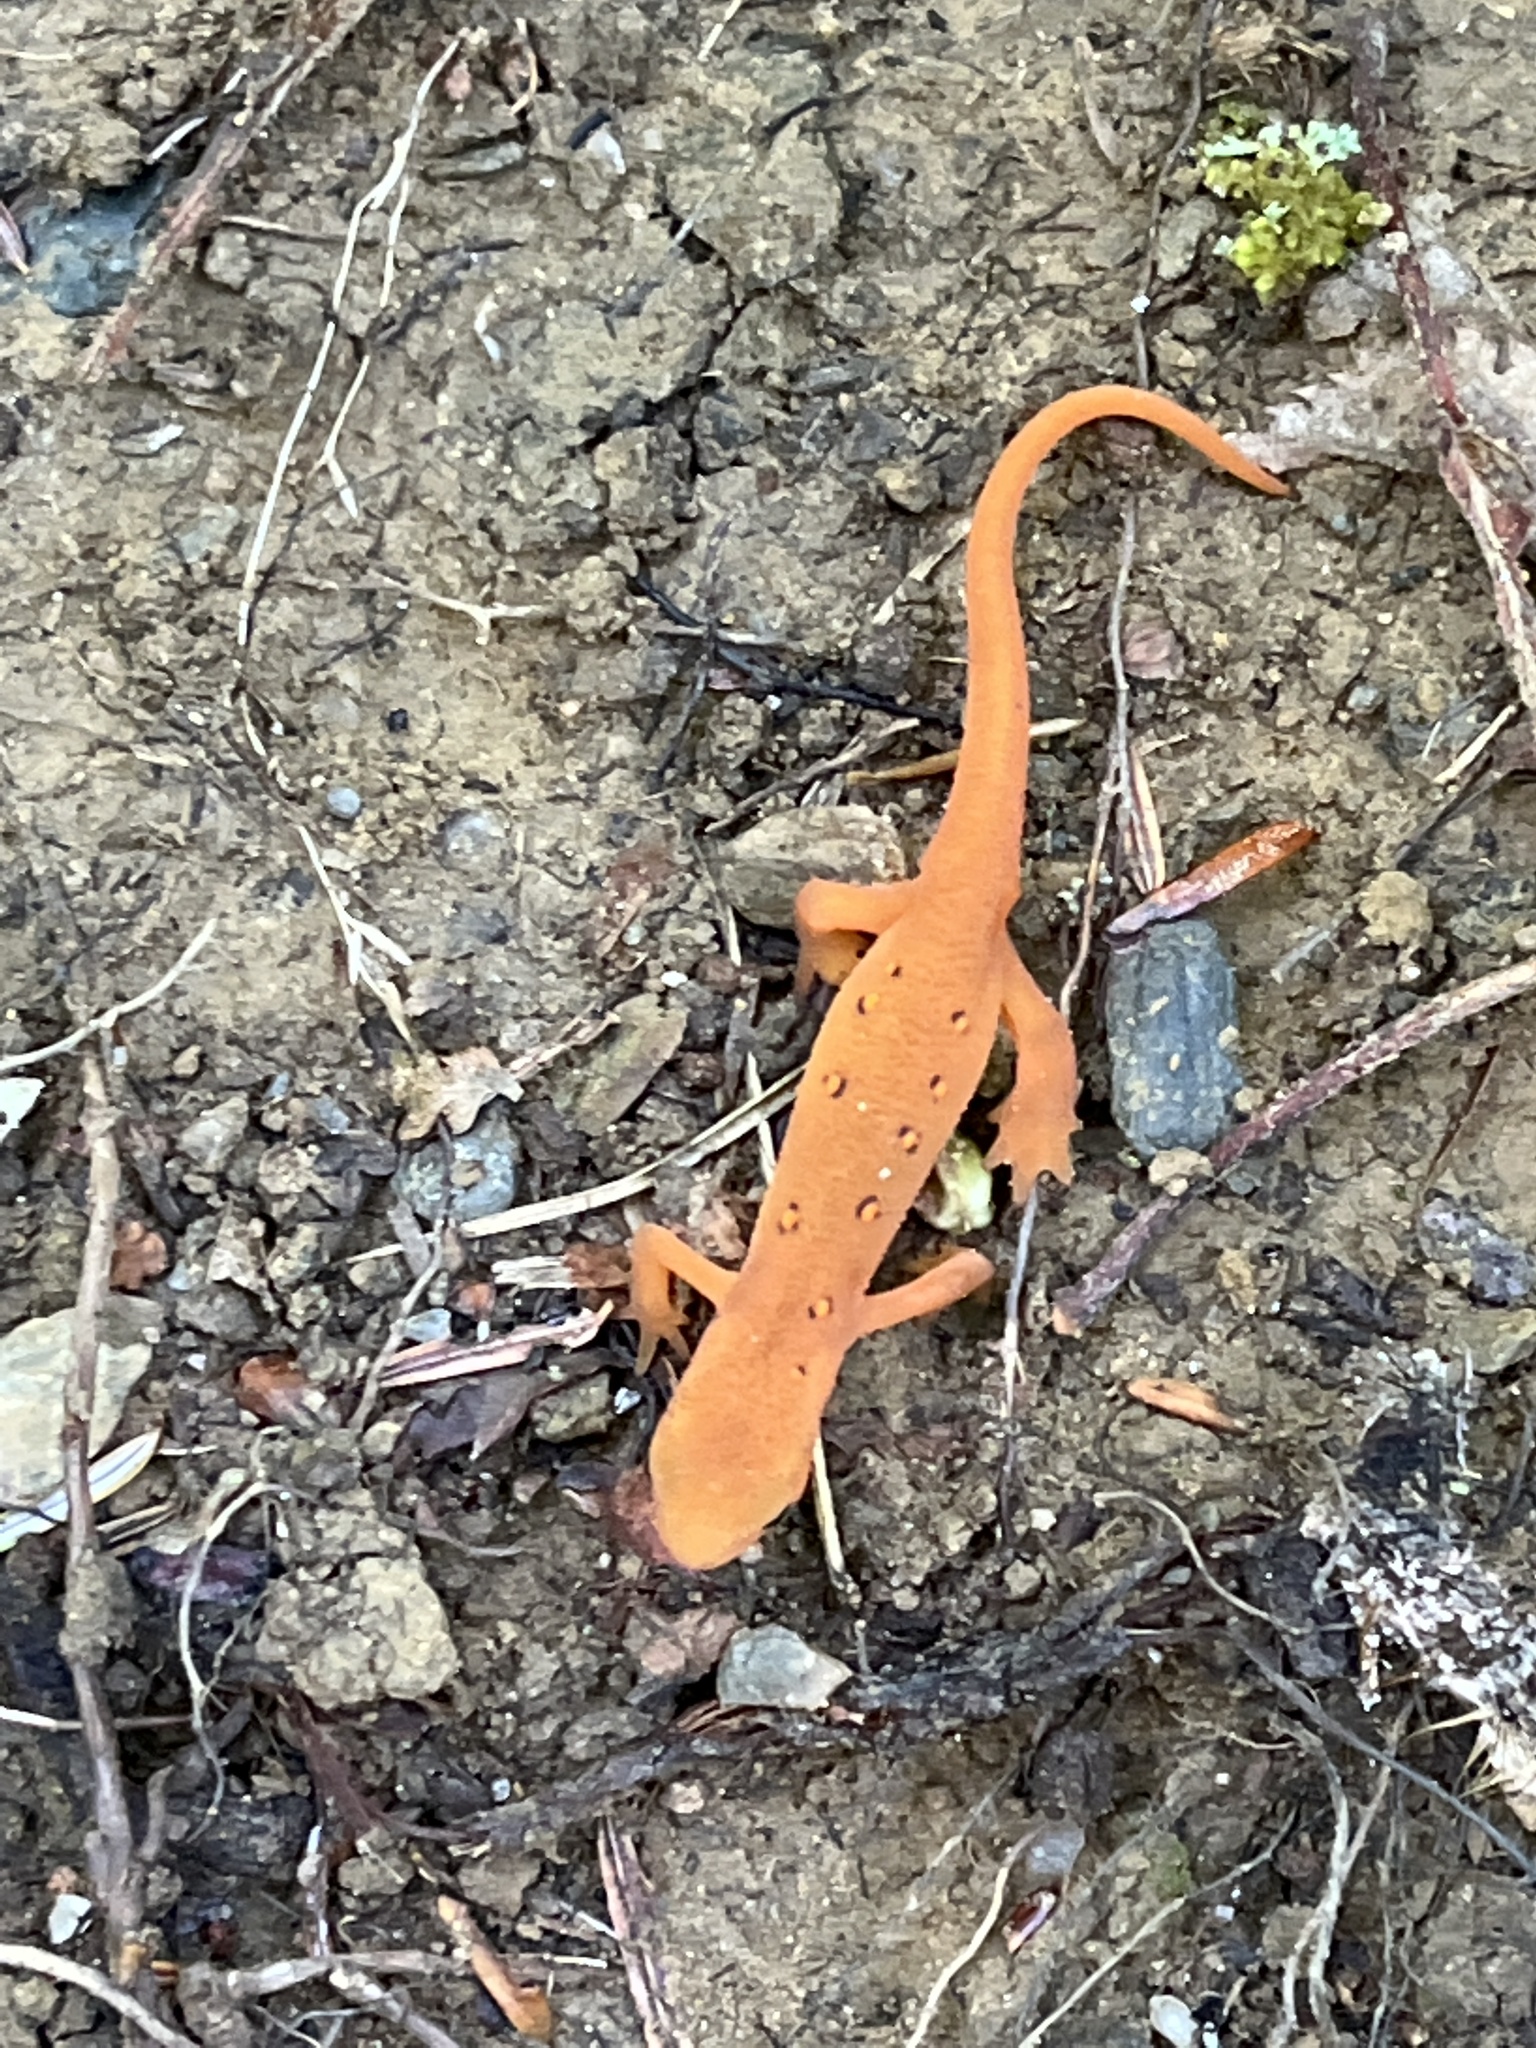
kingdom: Animalia
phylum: Chordata
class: Amphibia
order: Caudata
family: Salamandridae
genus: Notophthalmus
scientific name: Notophthalmus viridescens
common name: Eastern newt
